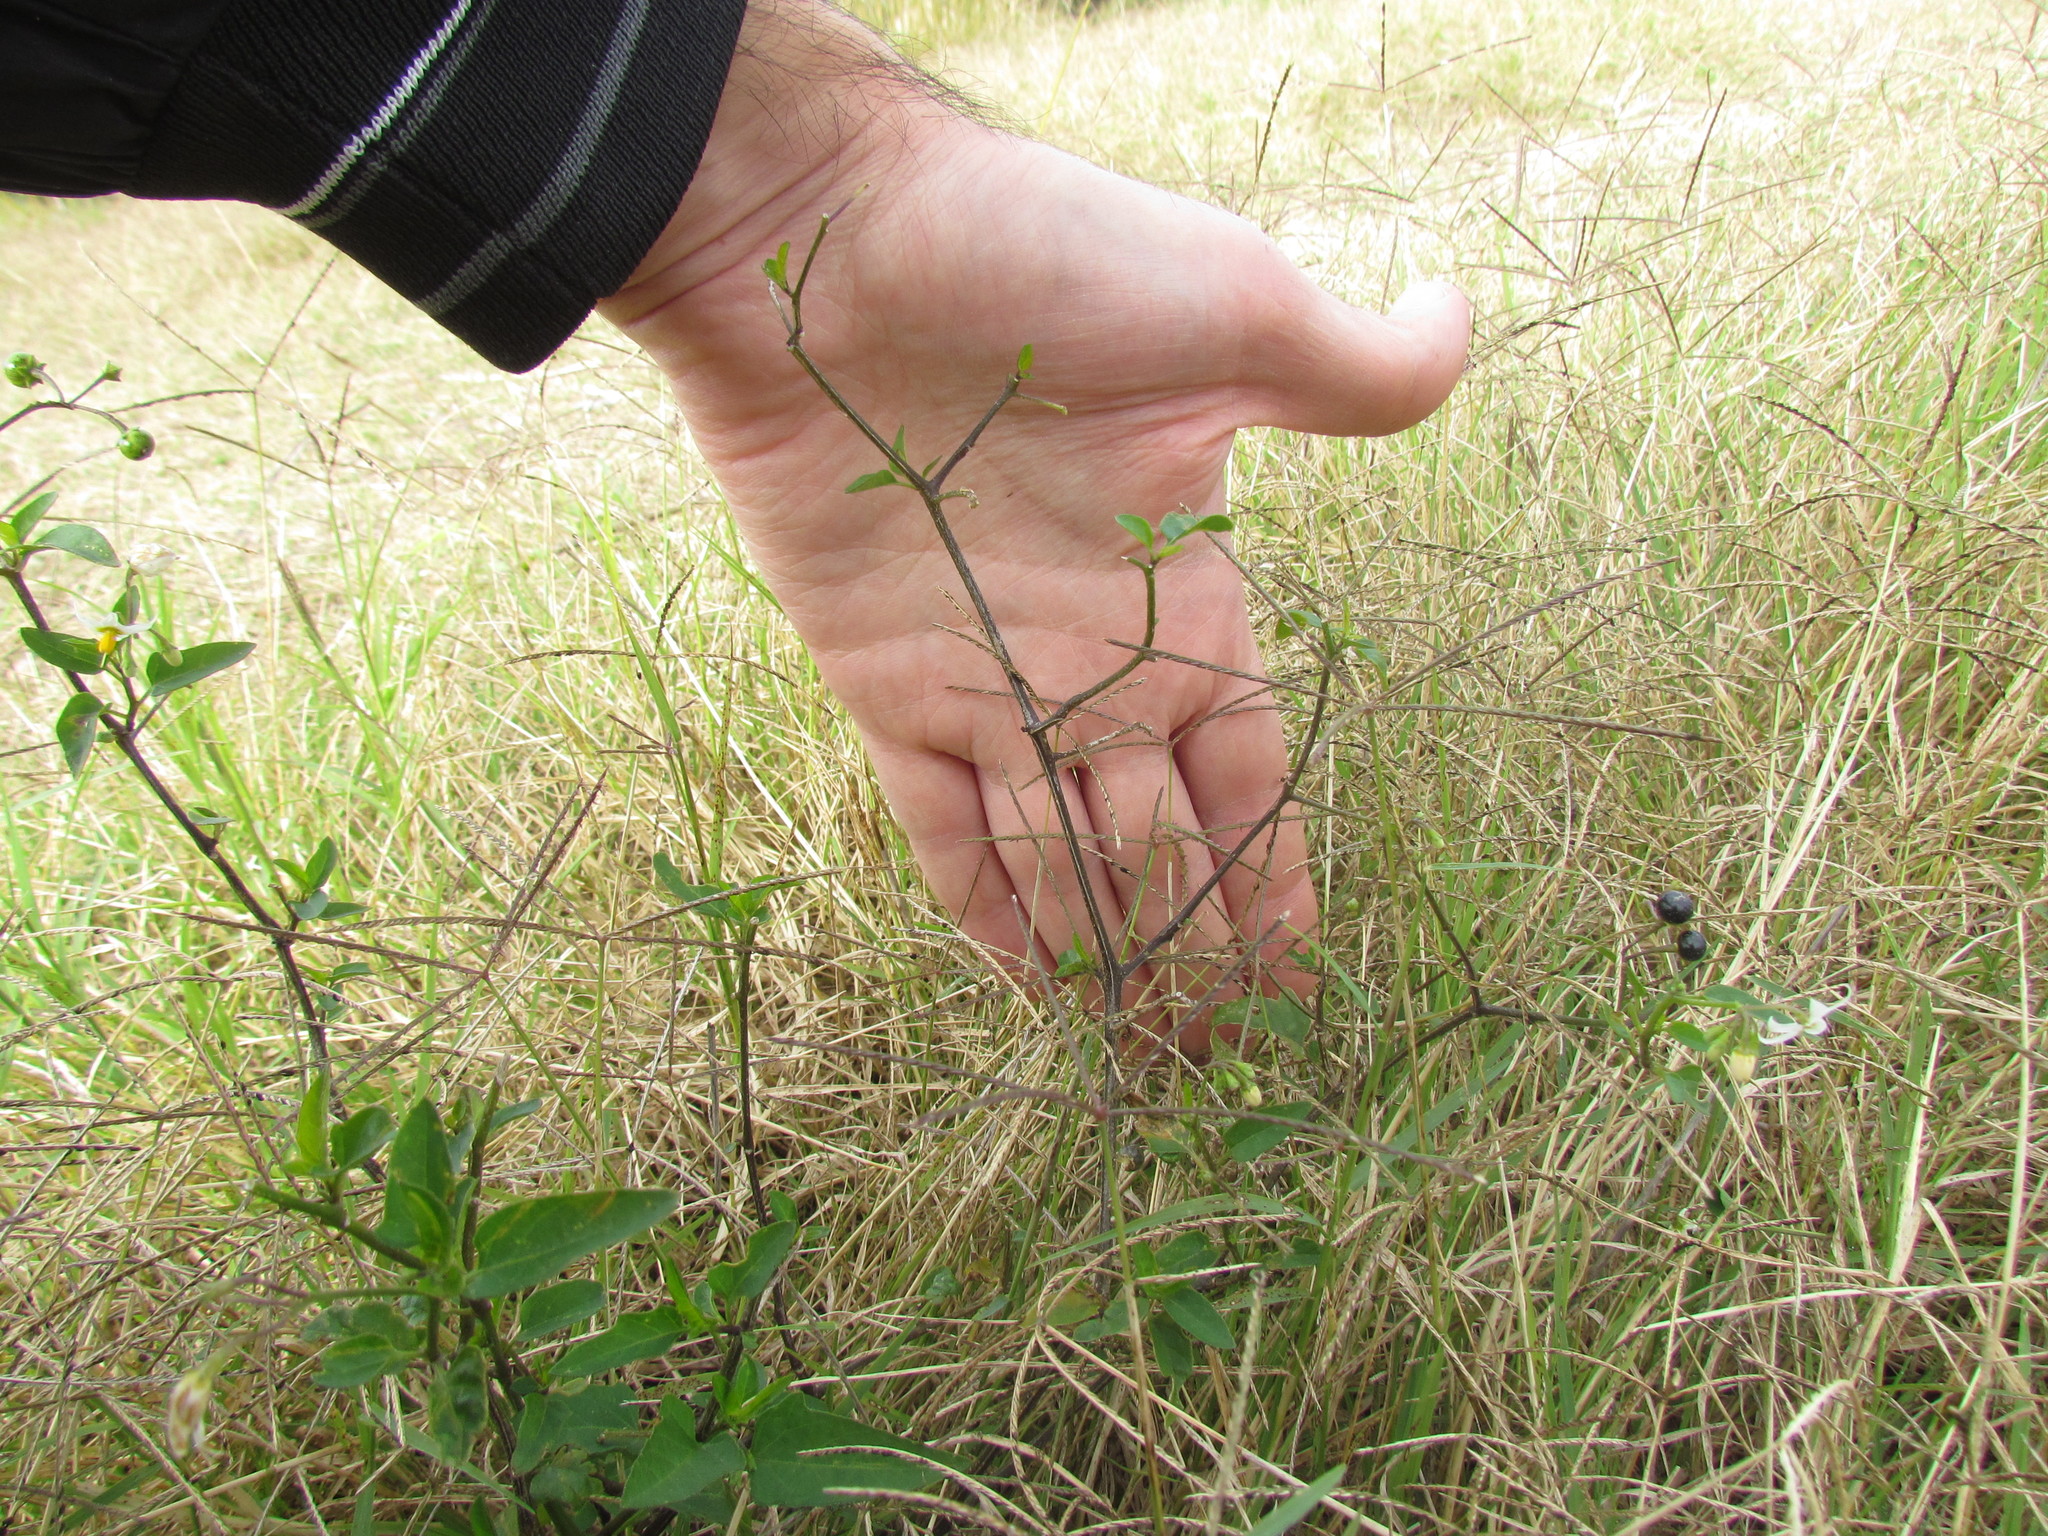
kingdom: Plantae
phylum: Tracheophyta
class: Magnoliopsida
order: Solanales
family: Solanaceae
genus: Solanum
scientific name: Solanum americanum
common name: American black nightshade
